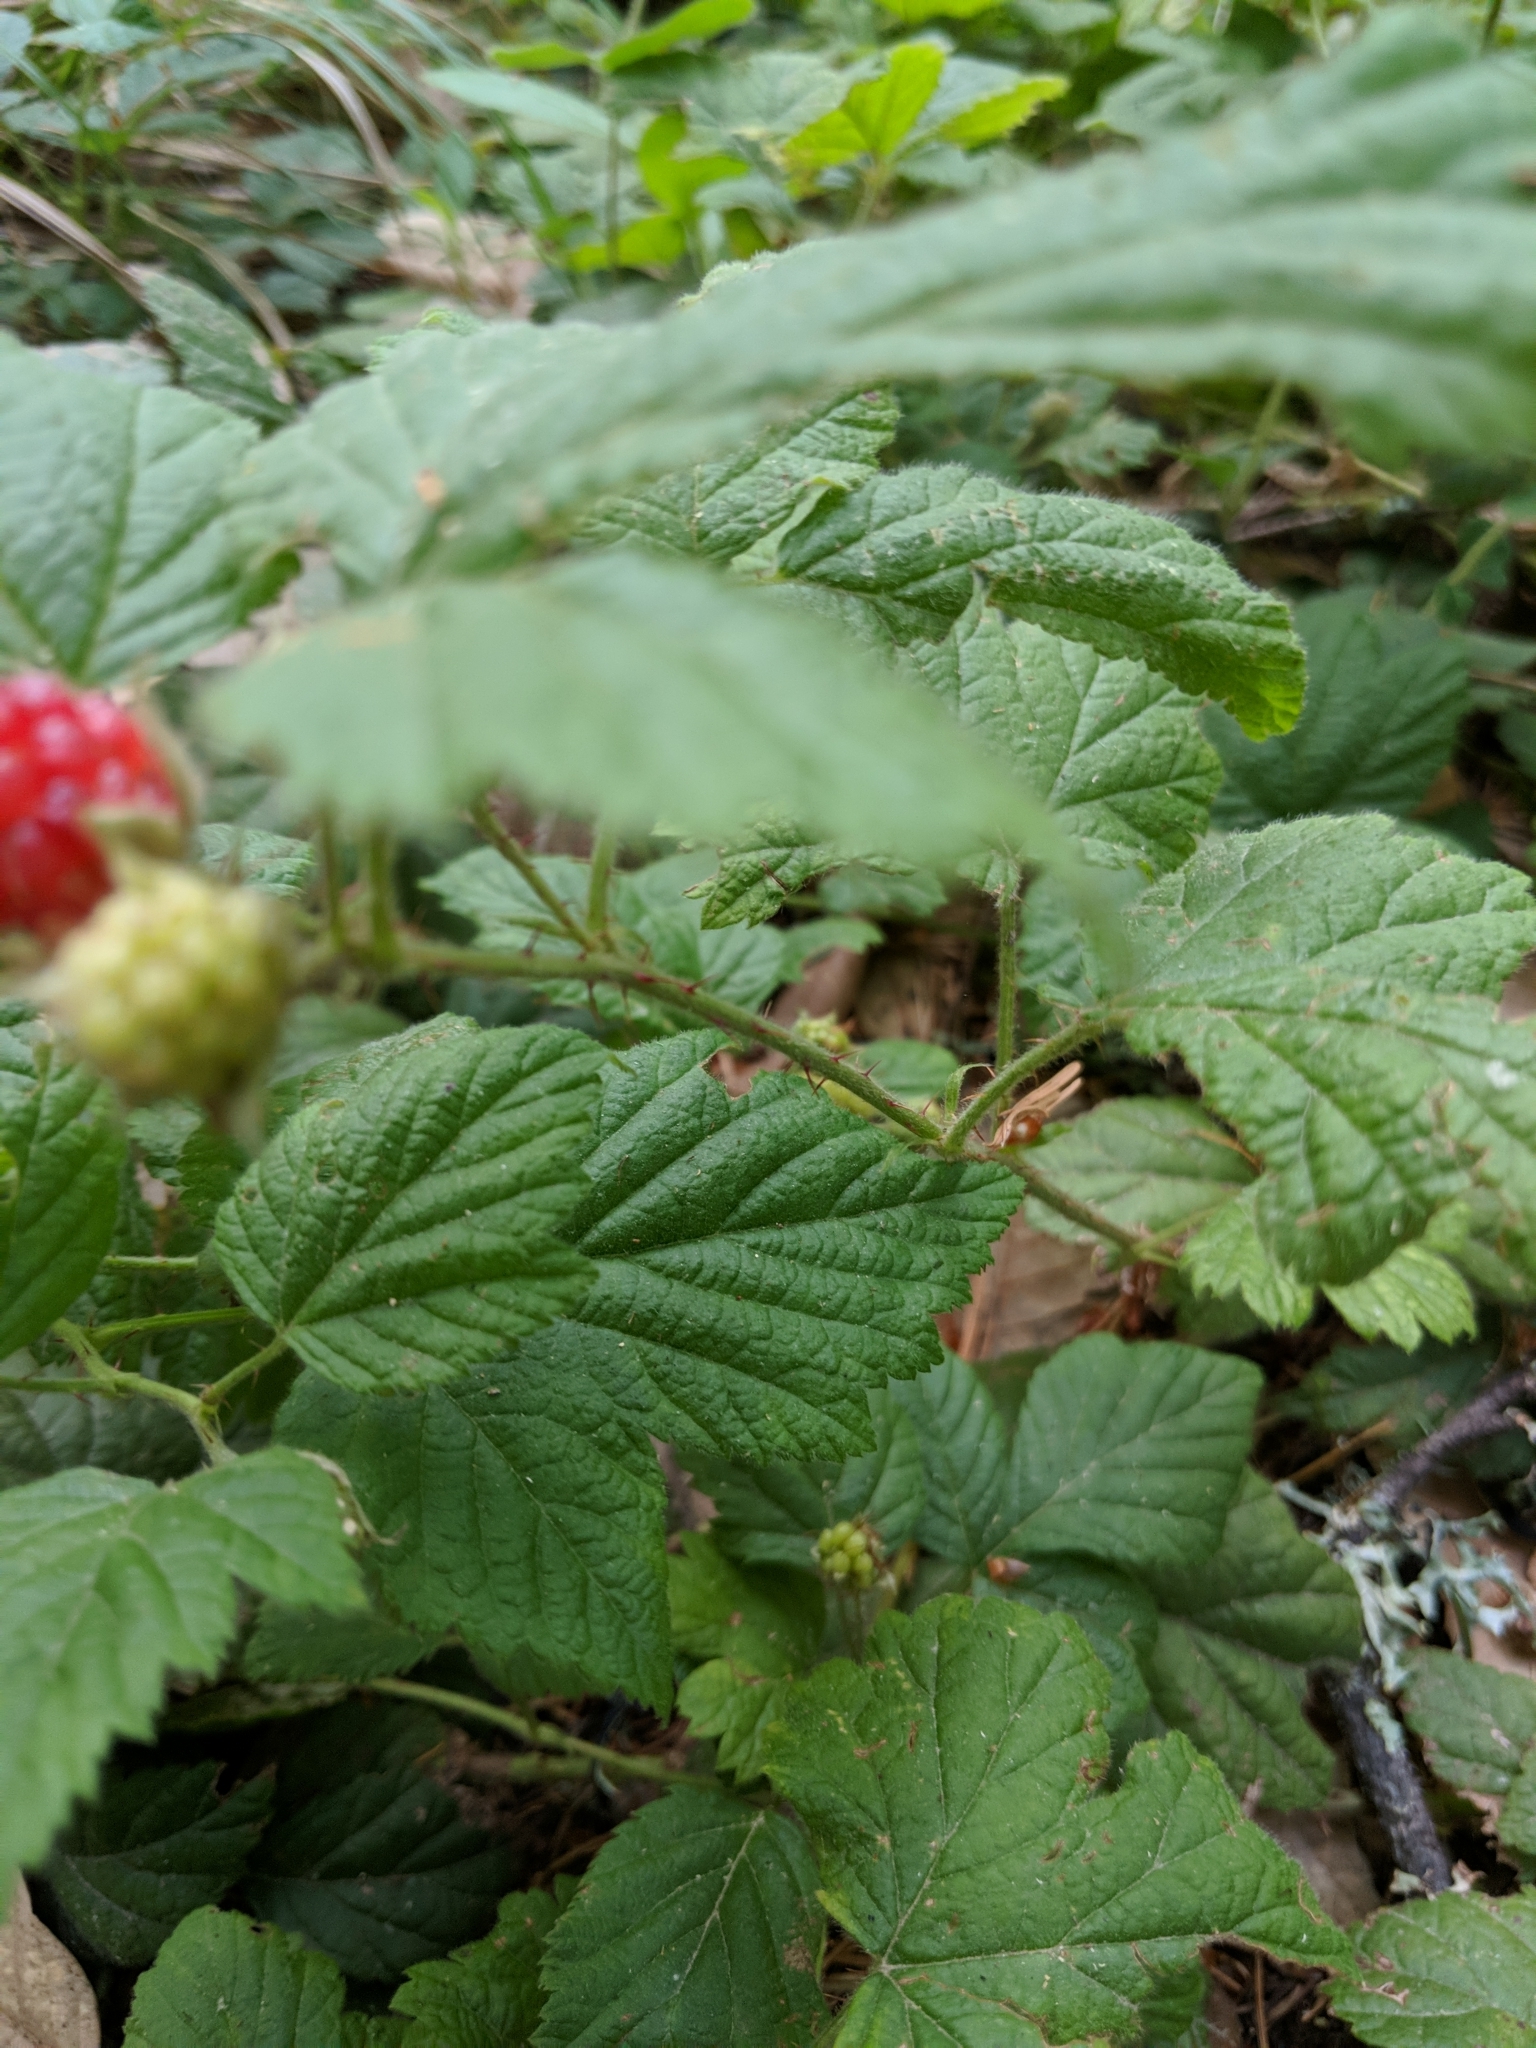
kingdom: Plantae
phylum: Tracheophyta
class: Magnoliopsida
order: Rosales
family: Rosaceae
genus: Rubus
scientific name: Rubus ursinus
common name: Pacific blackberry
